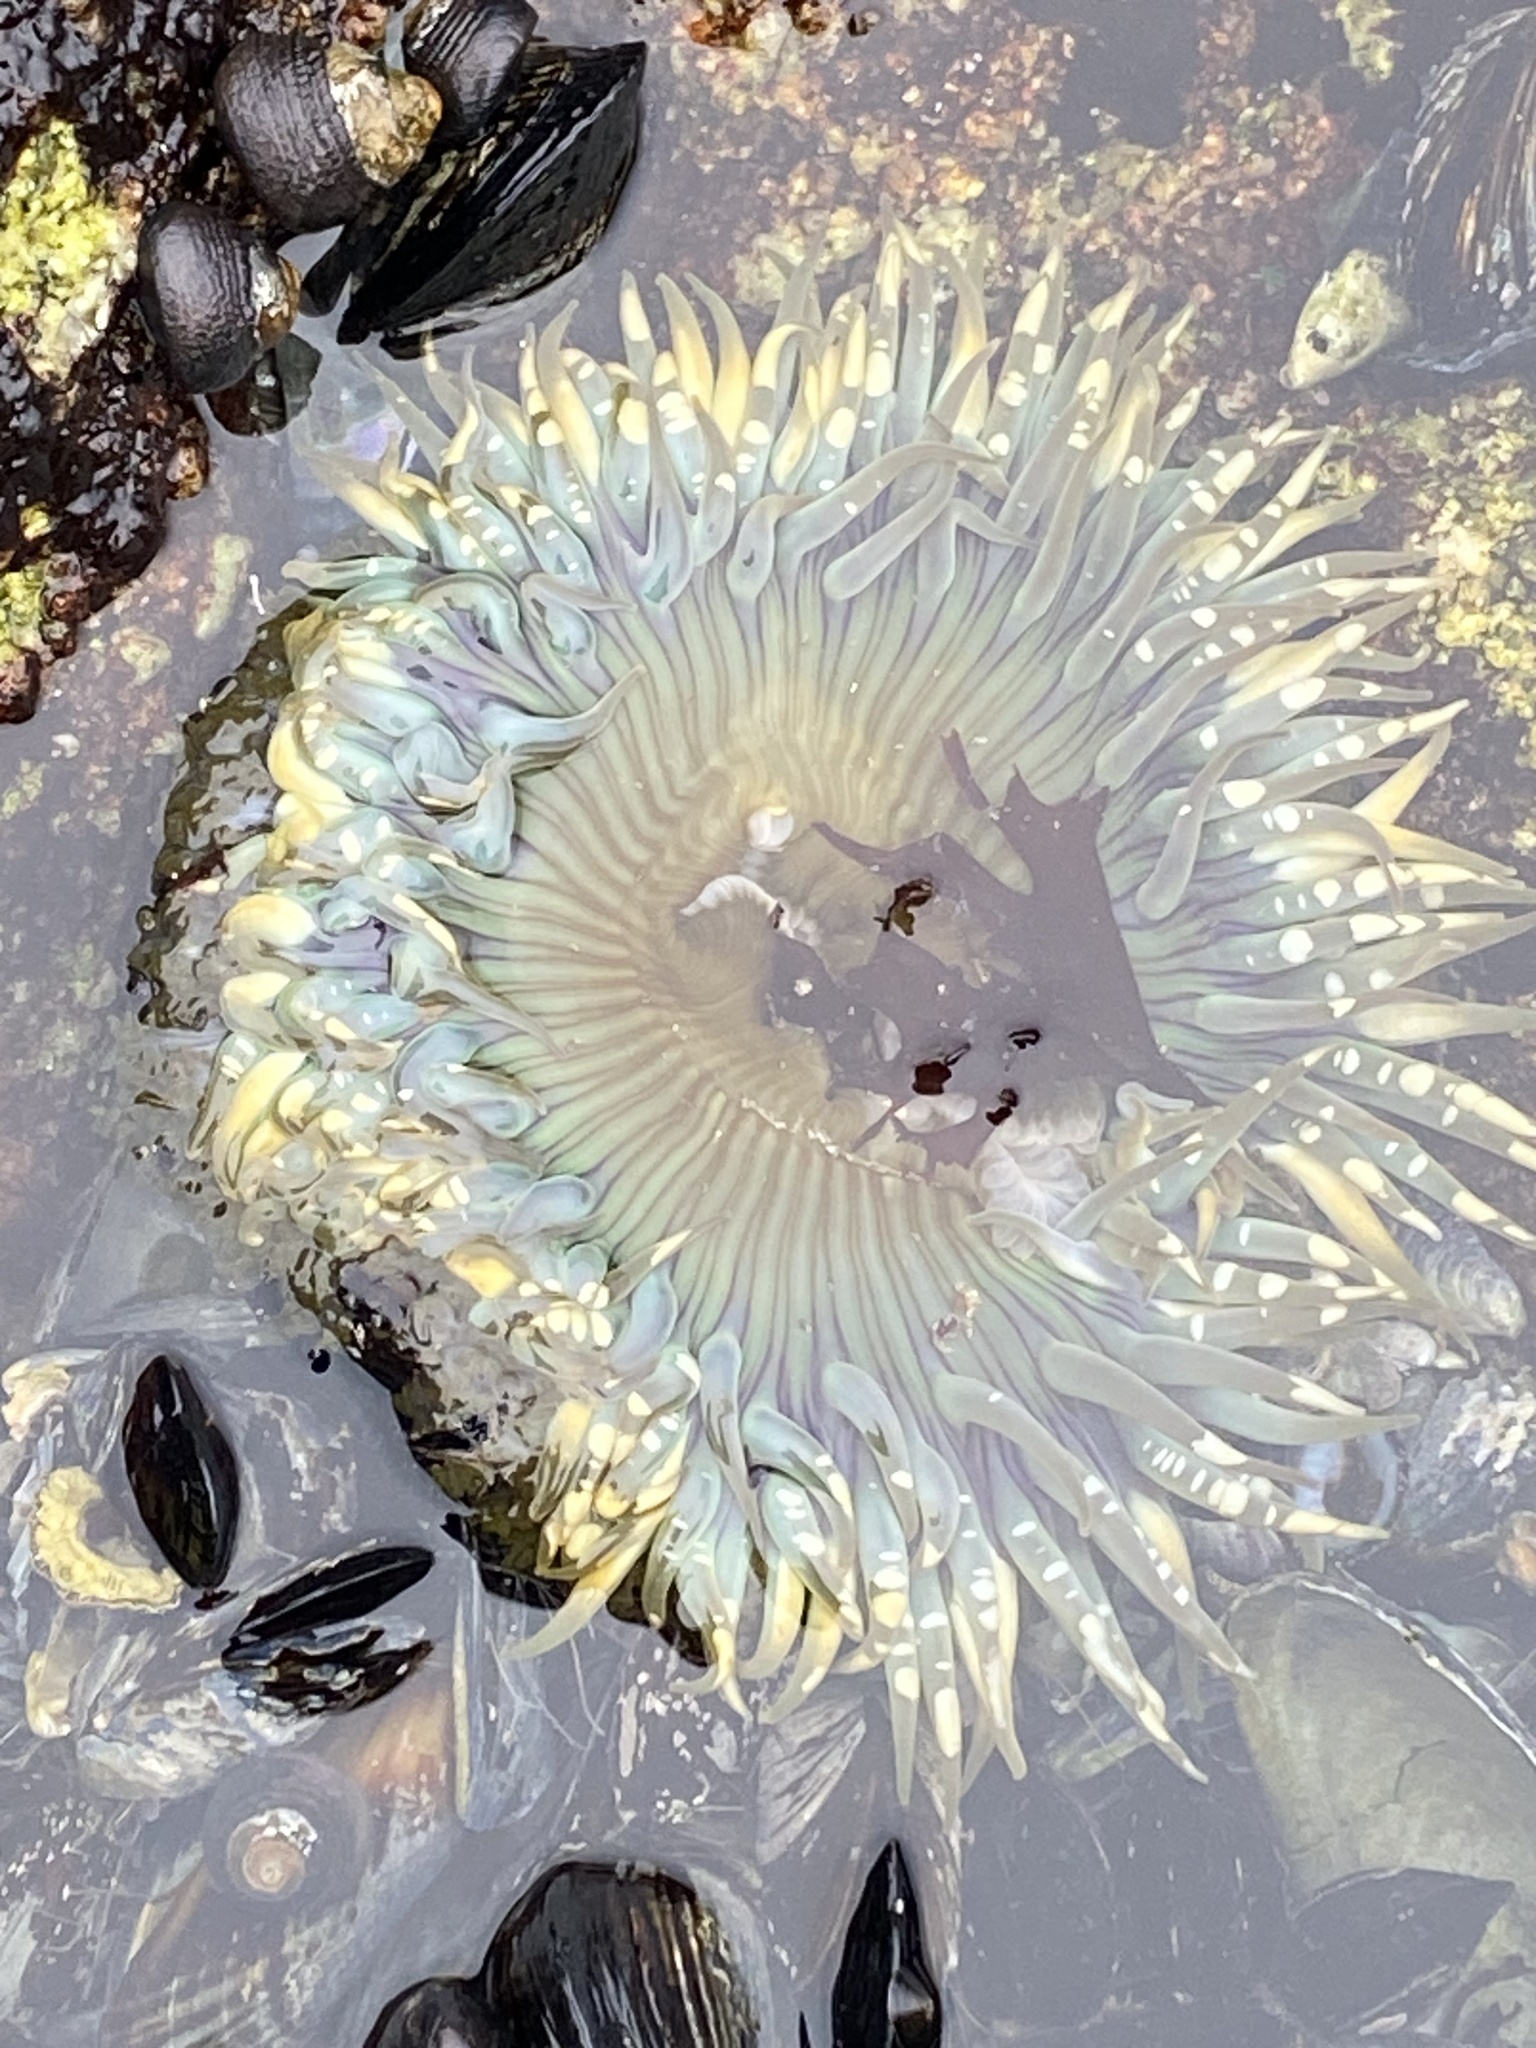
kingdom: Animalia
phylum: Cnidaria
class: Anthozoa
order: Actiniaria
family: Actiniidae
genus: Anthopleura
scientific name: Anthopleura sola
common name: Sun anemone
